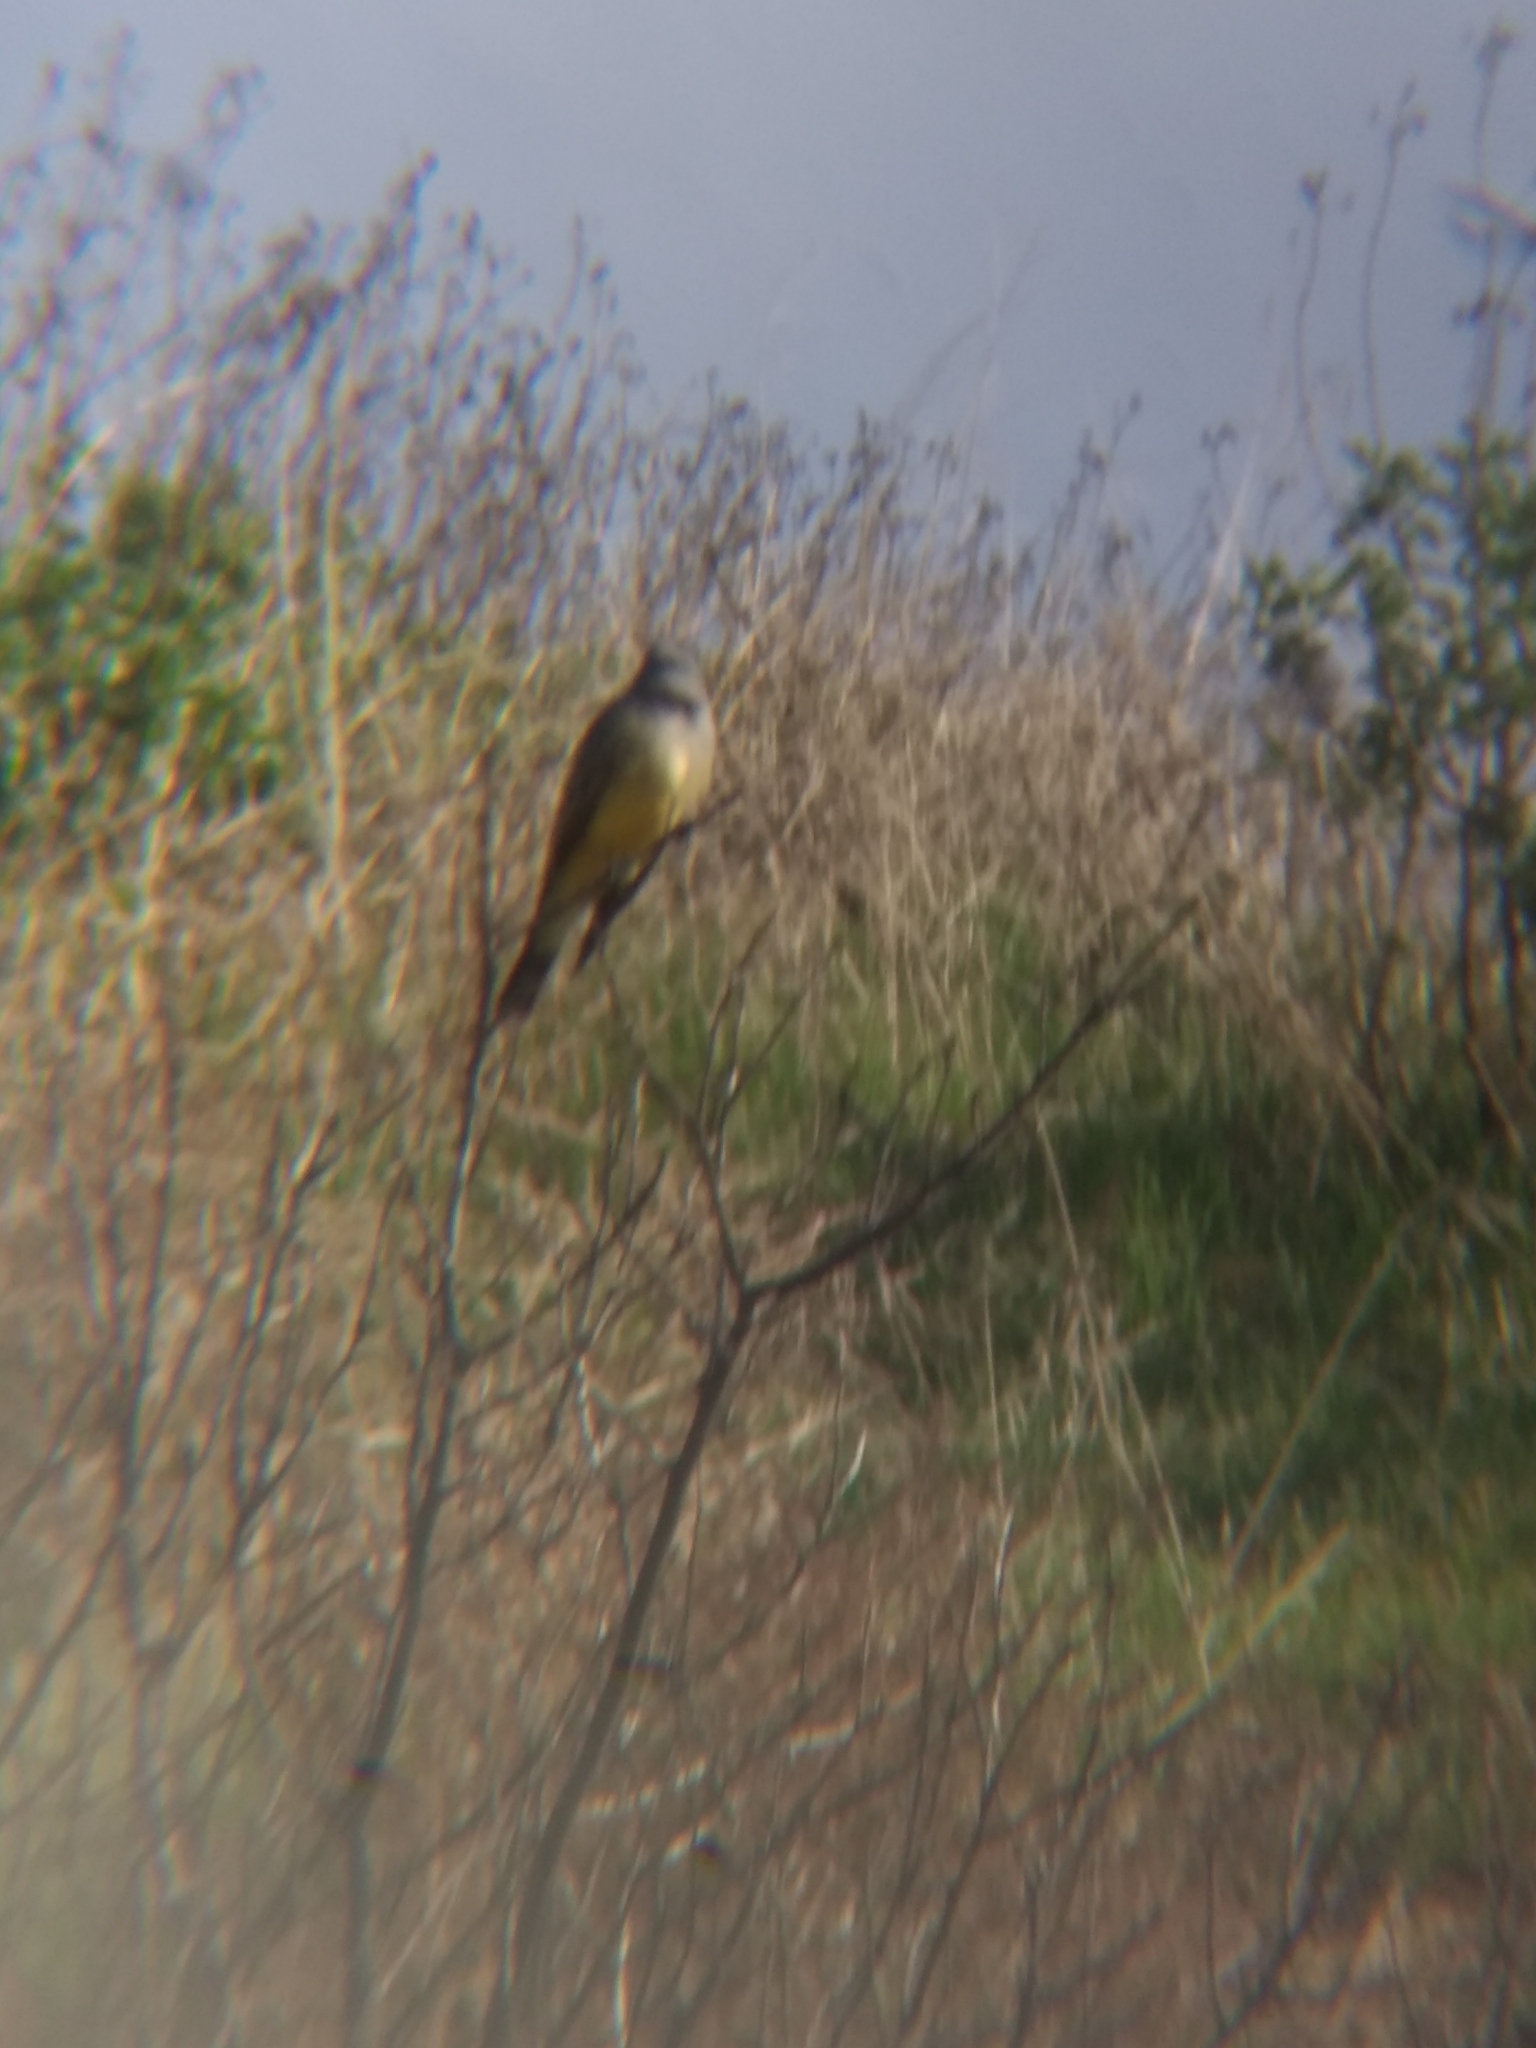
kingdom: Animalia
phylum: Chordata
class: Aves
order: Passeriformes
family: Tyrannidae
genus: Tyrannus
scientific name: Tyrannus vociferans
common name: Cassin's kingbird
